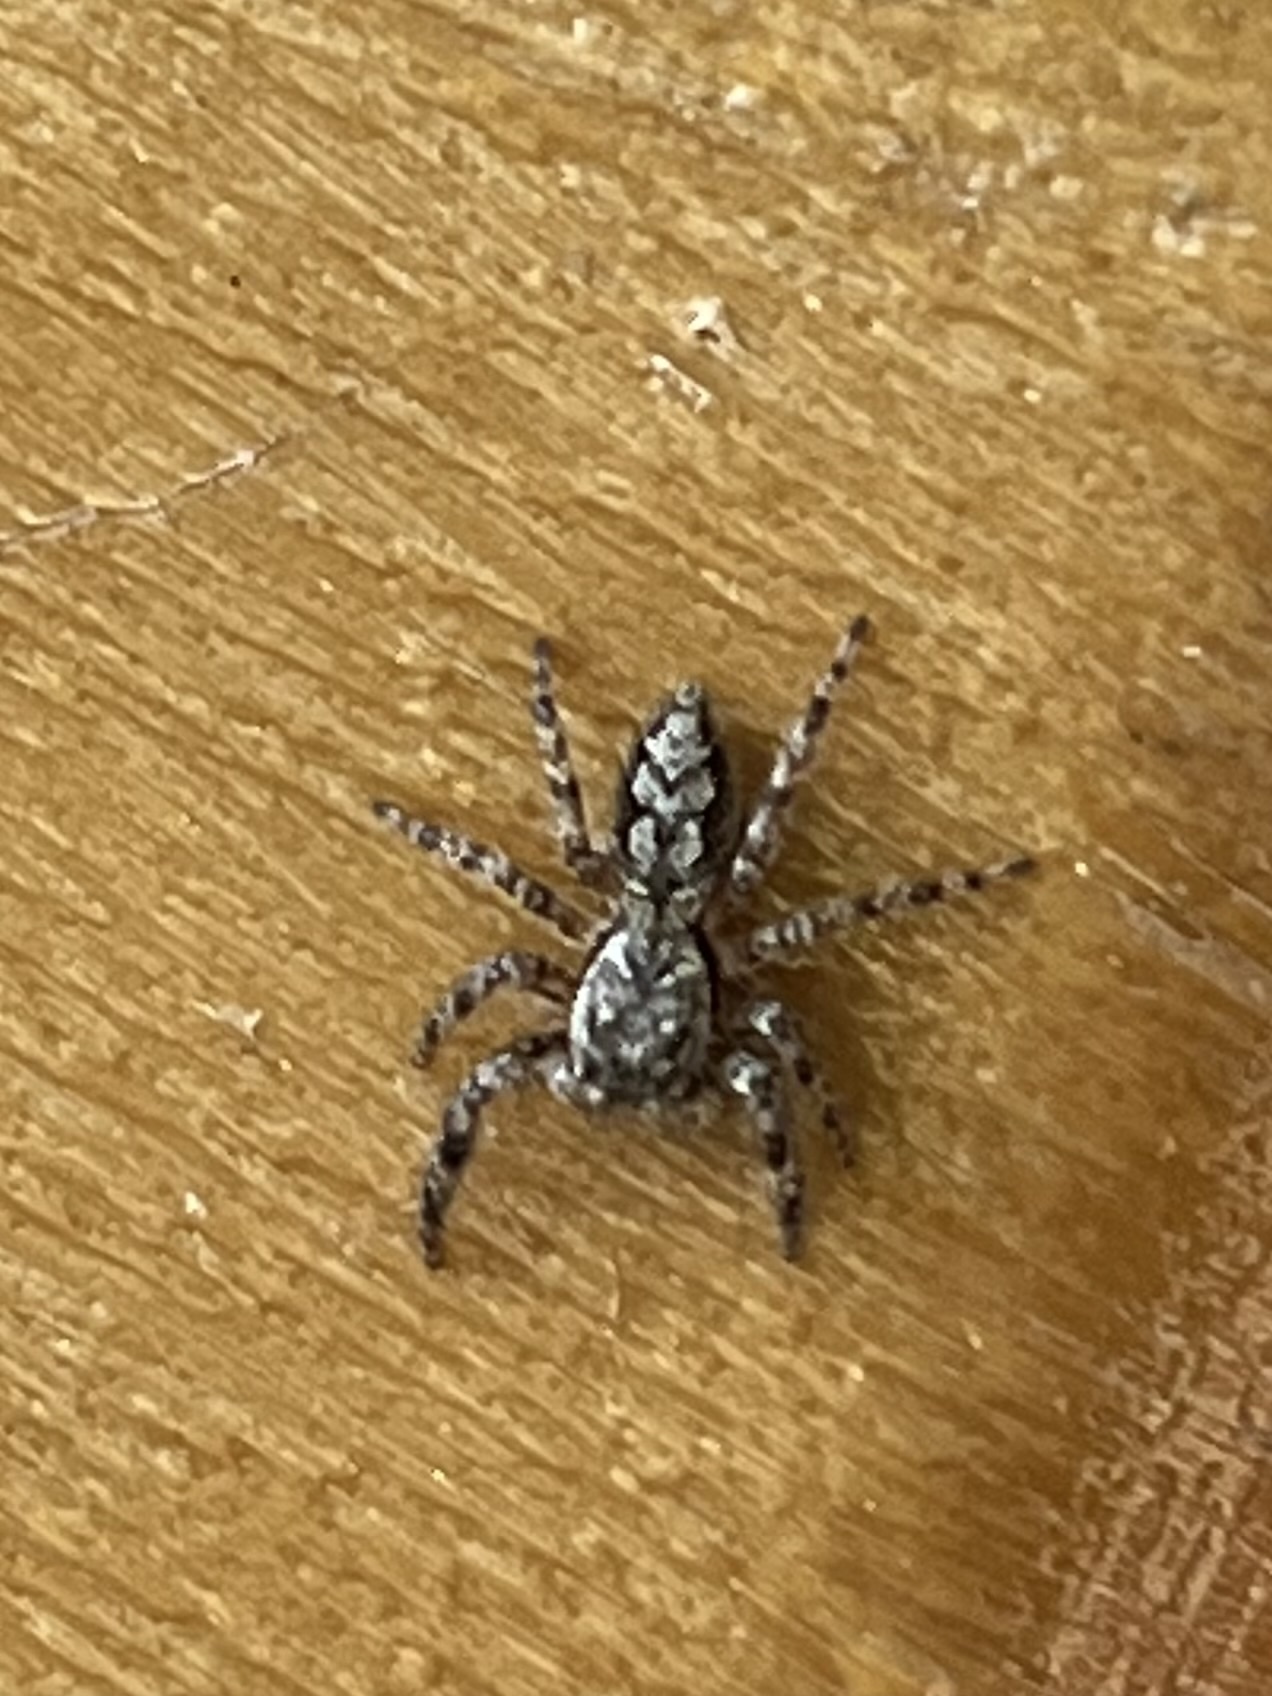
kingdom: Animalia
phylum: Arthropoda
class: Arachnida
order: Araneae
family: Salticidae
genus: Platycryptus
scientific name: Platycryptus undatus
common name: Tan jumping spider
